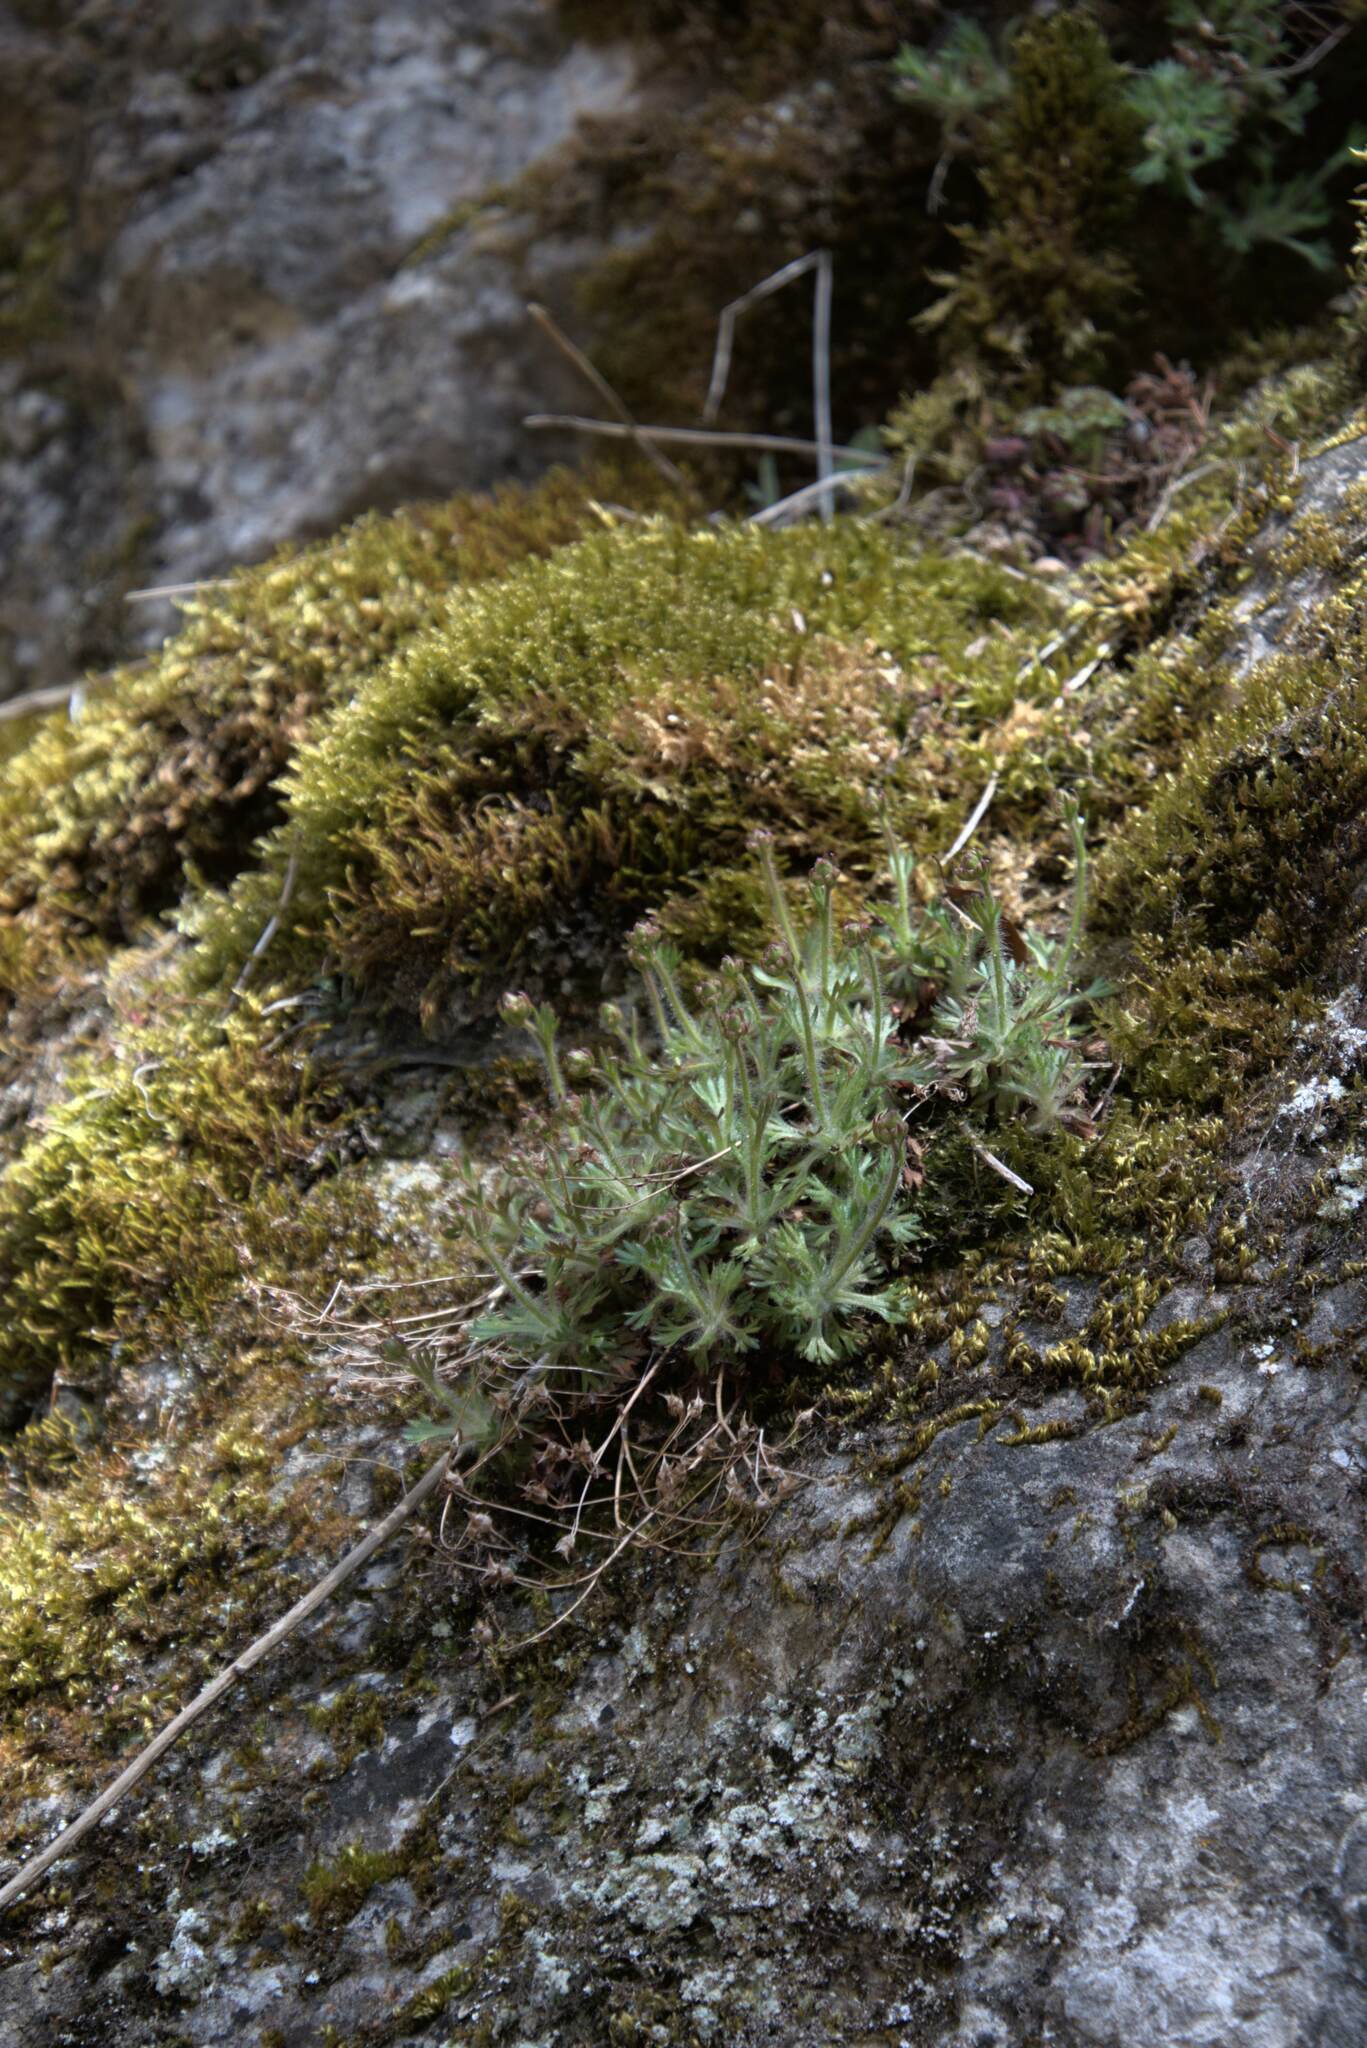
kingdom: Plantae
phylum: Tracheophyta
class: Magnoliopsida
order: Saxifragales
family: Saxifragaceae
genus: Saxifraga
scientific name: Saxifraga rosacea
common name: Irish saxifrage
